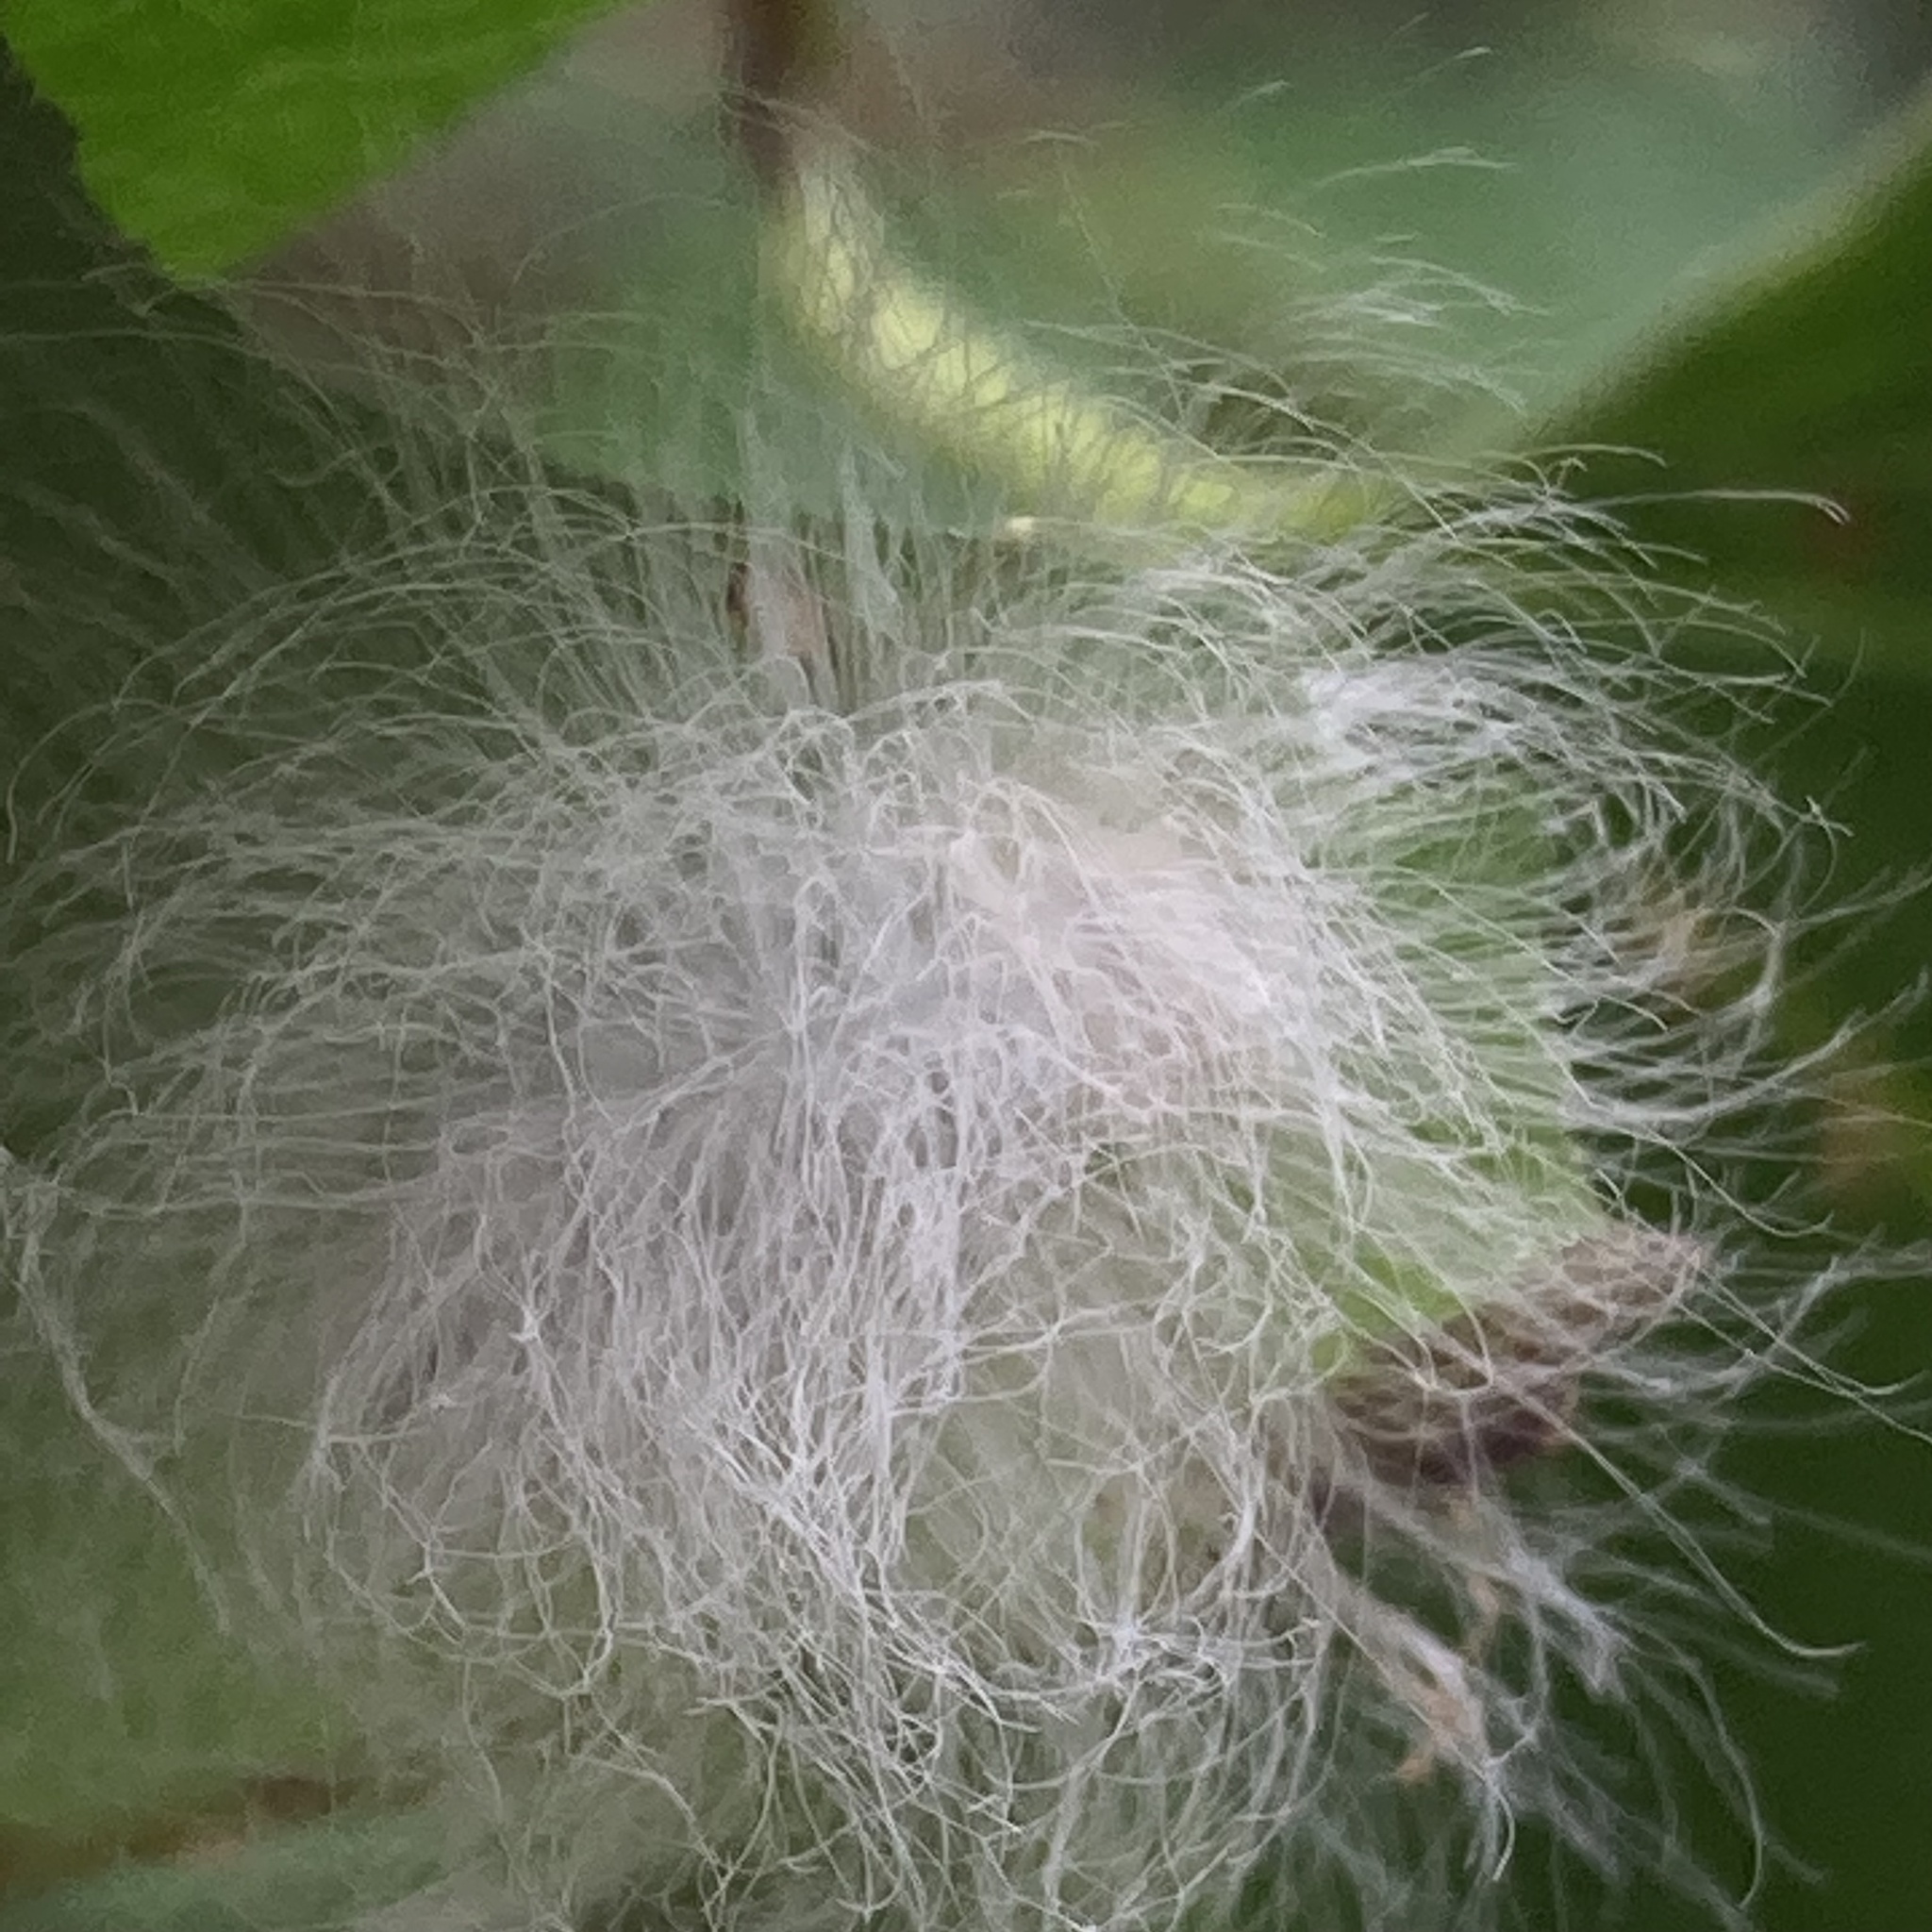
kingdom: Animalia
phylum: Arthropoda
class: Insecta
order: Lepidoptera
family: Megalopygidae
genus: Megalopyge
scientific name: Megalopyge crispata
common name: Black-waved flannel moth
